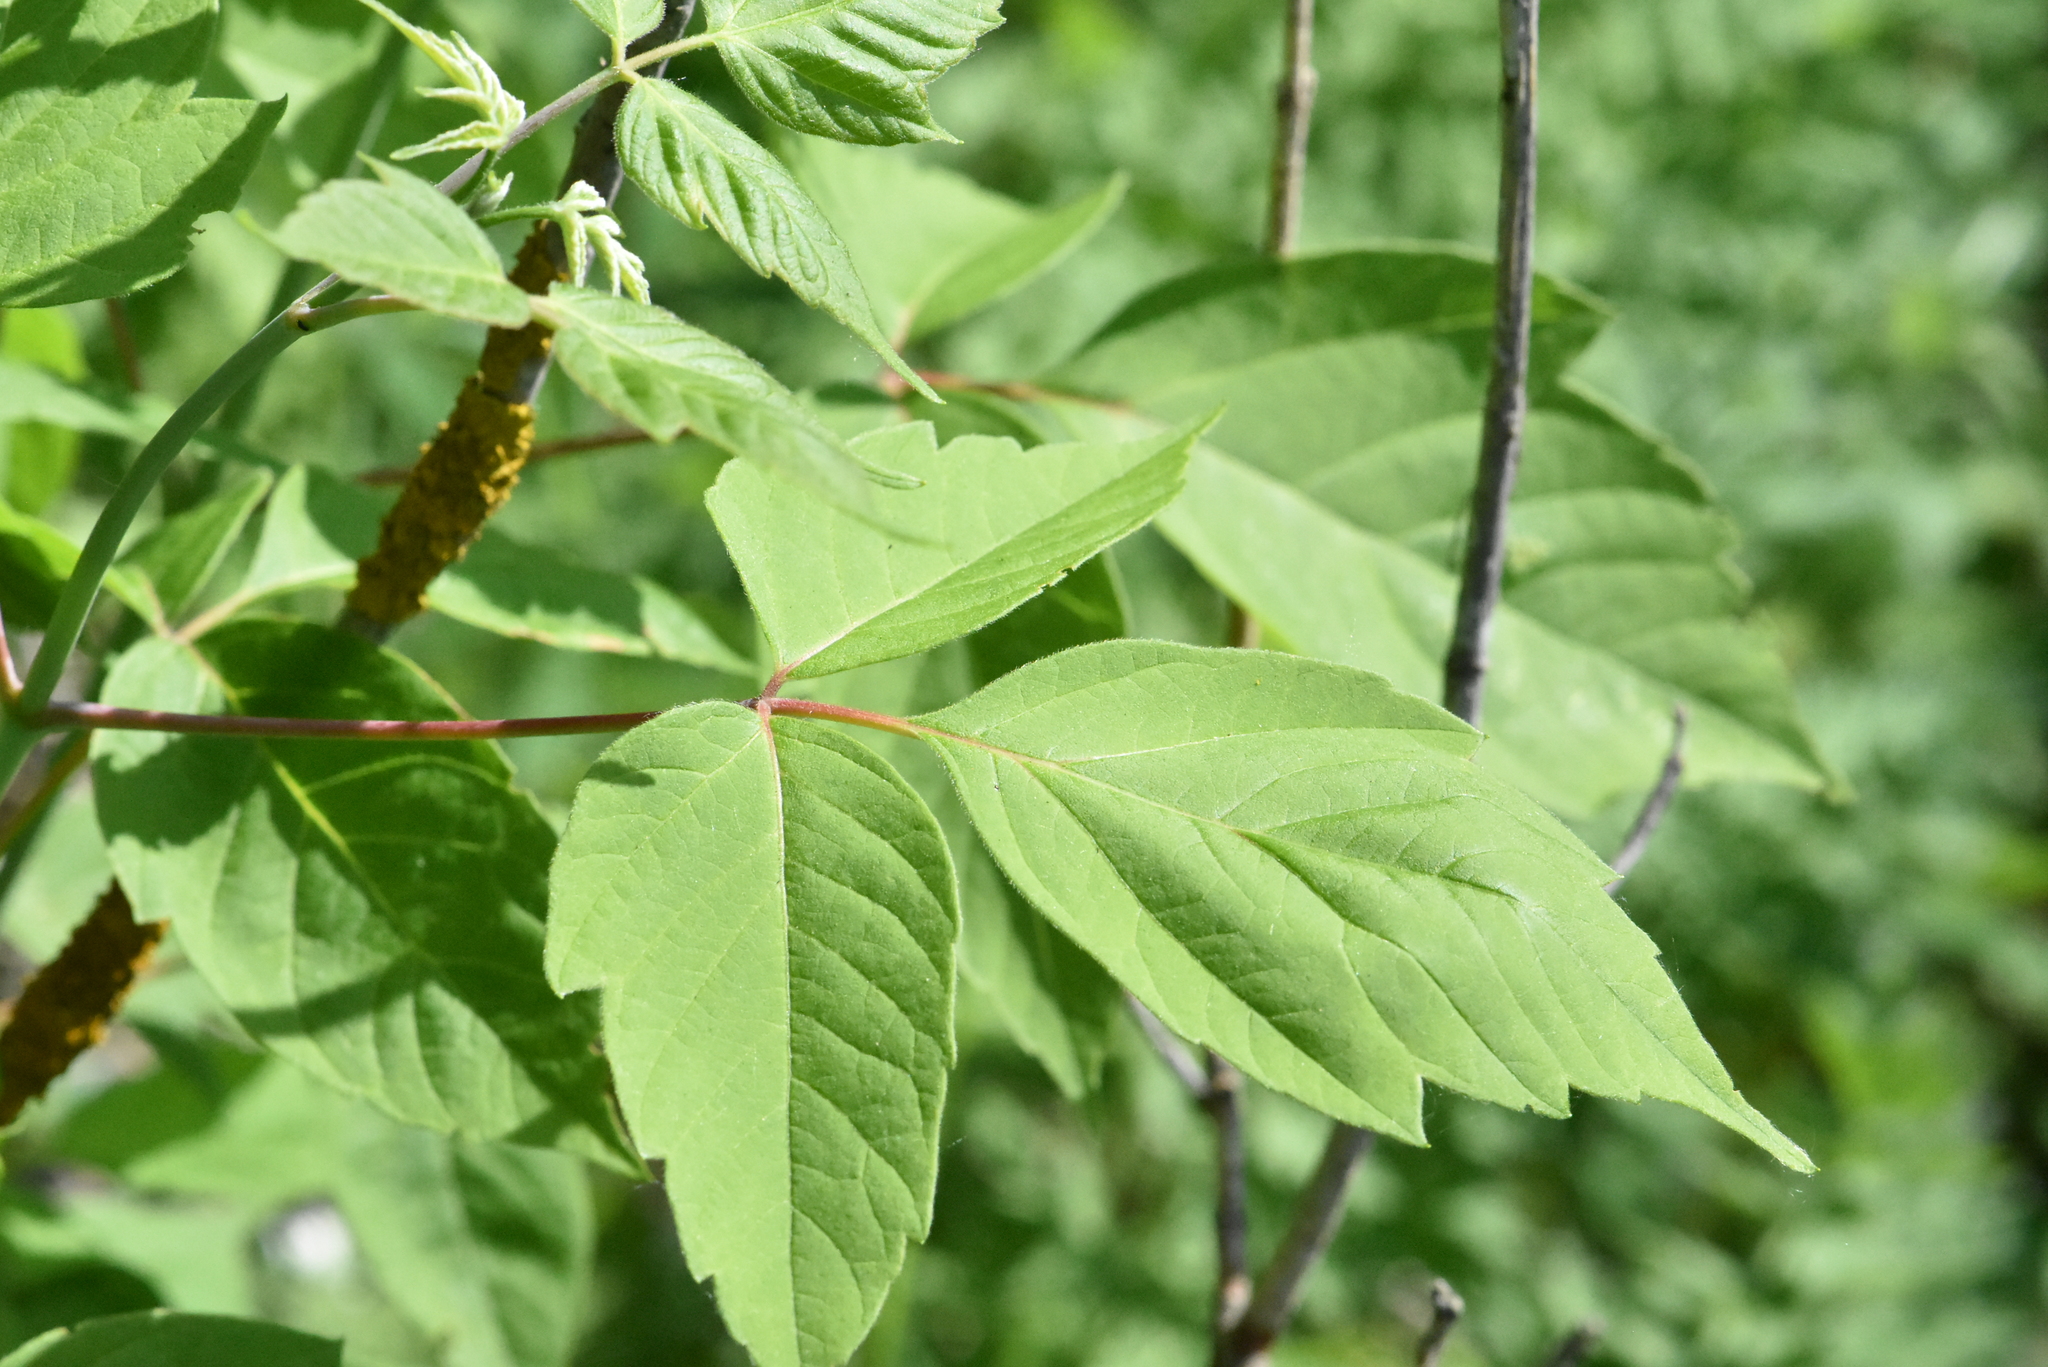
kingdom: Plantae
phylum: Tracheophyta
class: Magnoliopsida
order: Sapindales
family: Sapindaceae
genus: Acer
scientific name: Acer negundo
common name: Ashleaf maple
